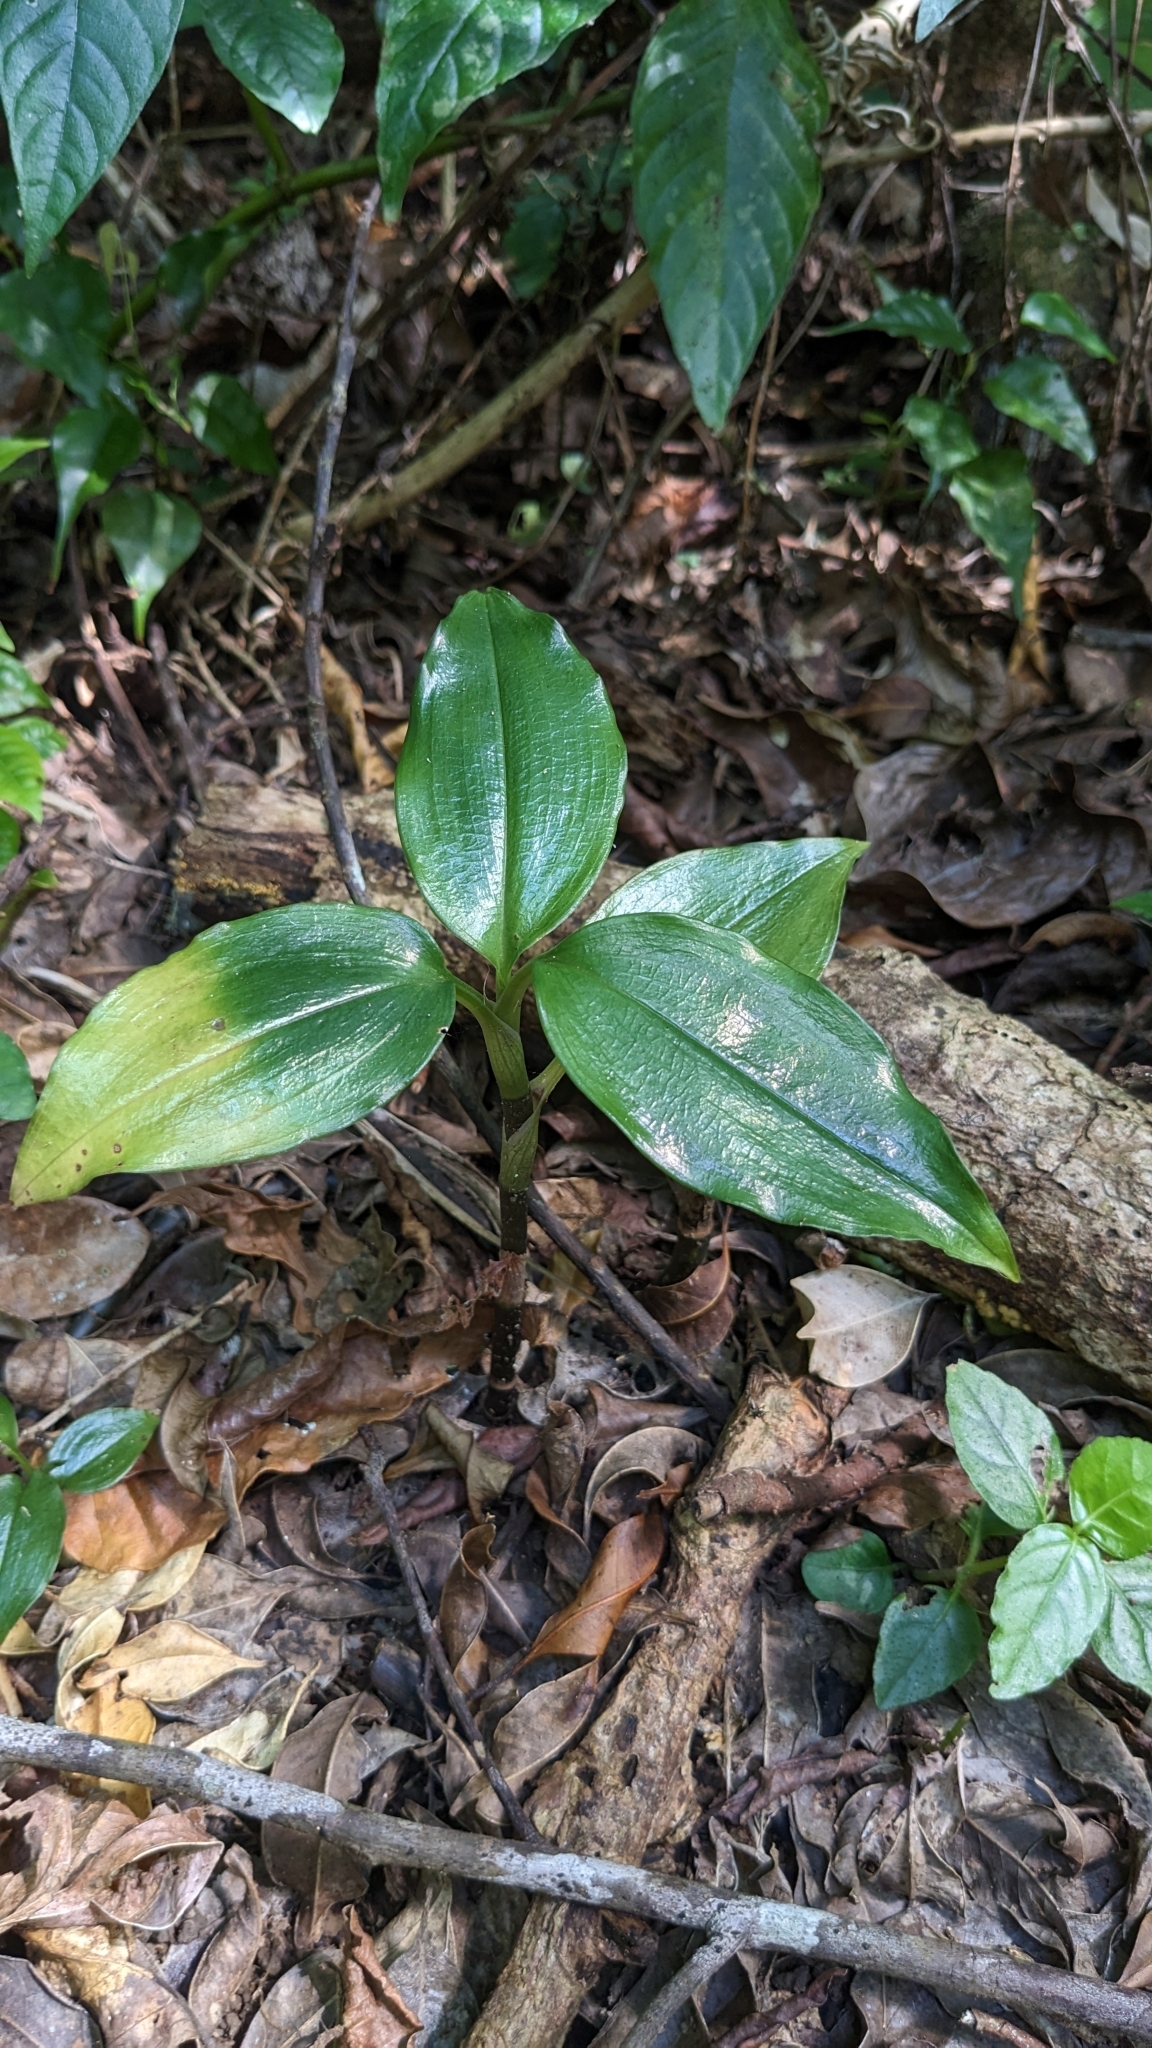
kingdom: Plantae
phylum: Tracheophyta
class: Liliopsida
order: Asparagales
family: Orchidaceae
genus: Hylophila
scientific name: Hylophila nipponica
